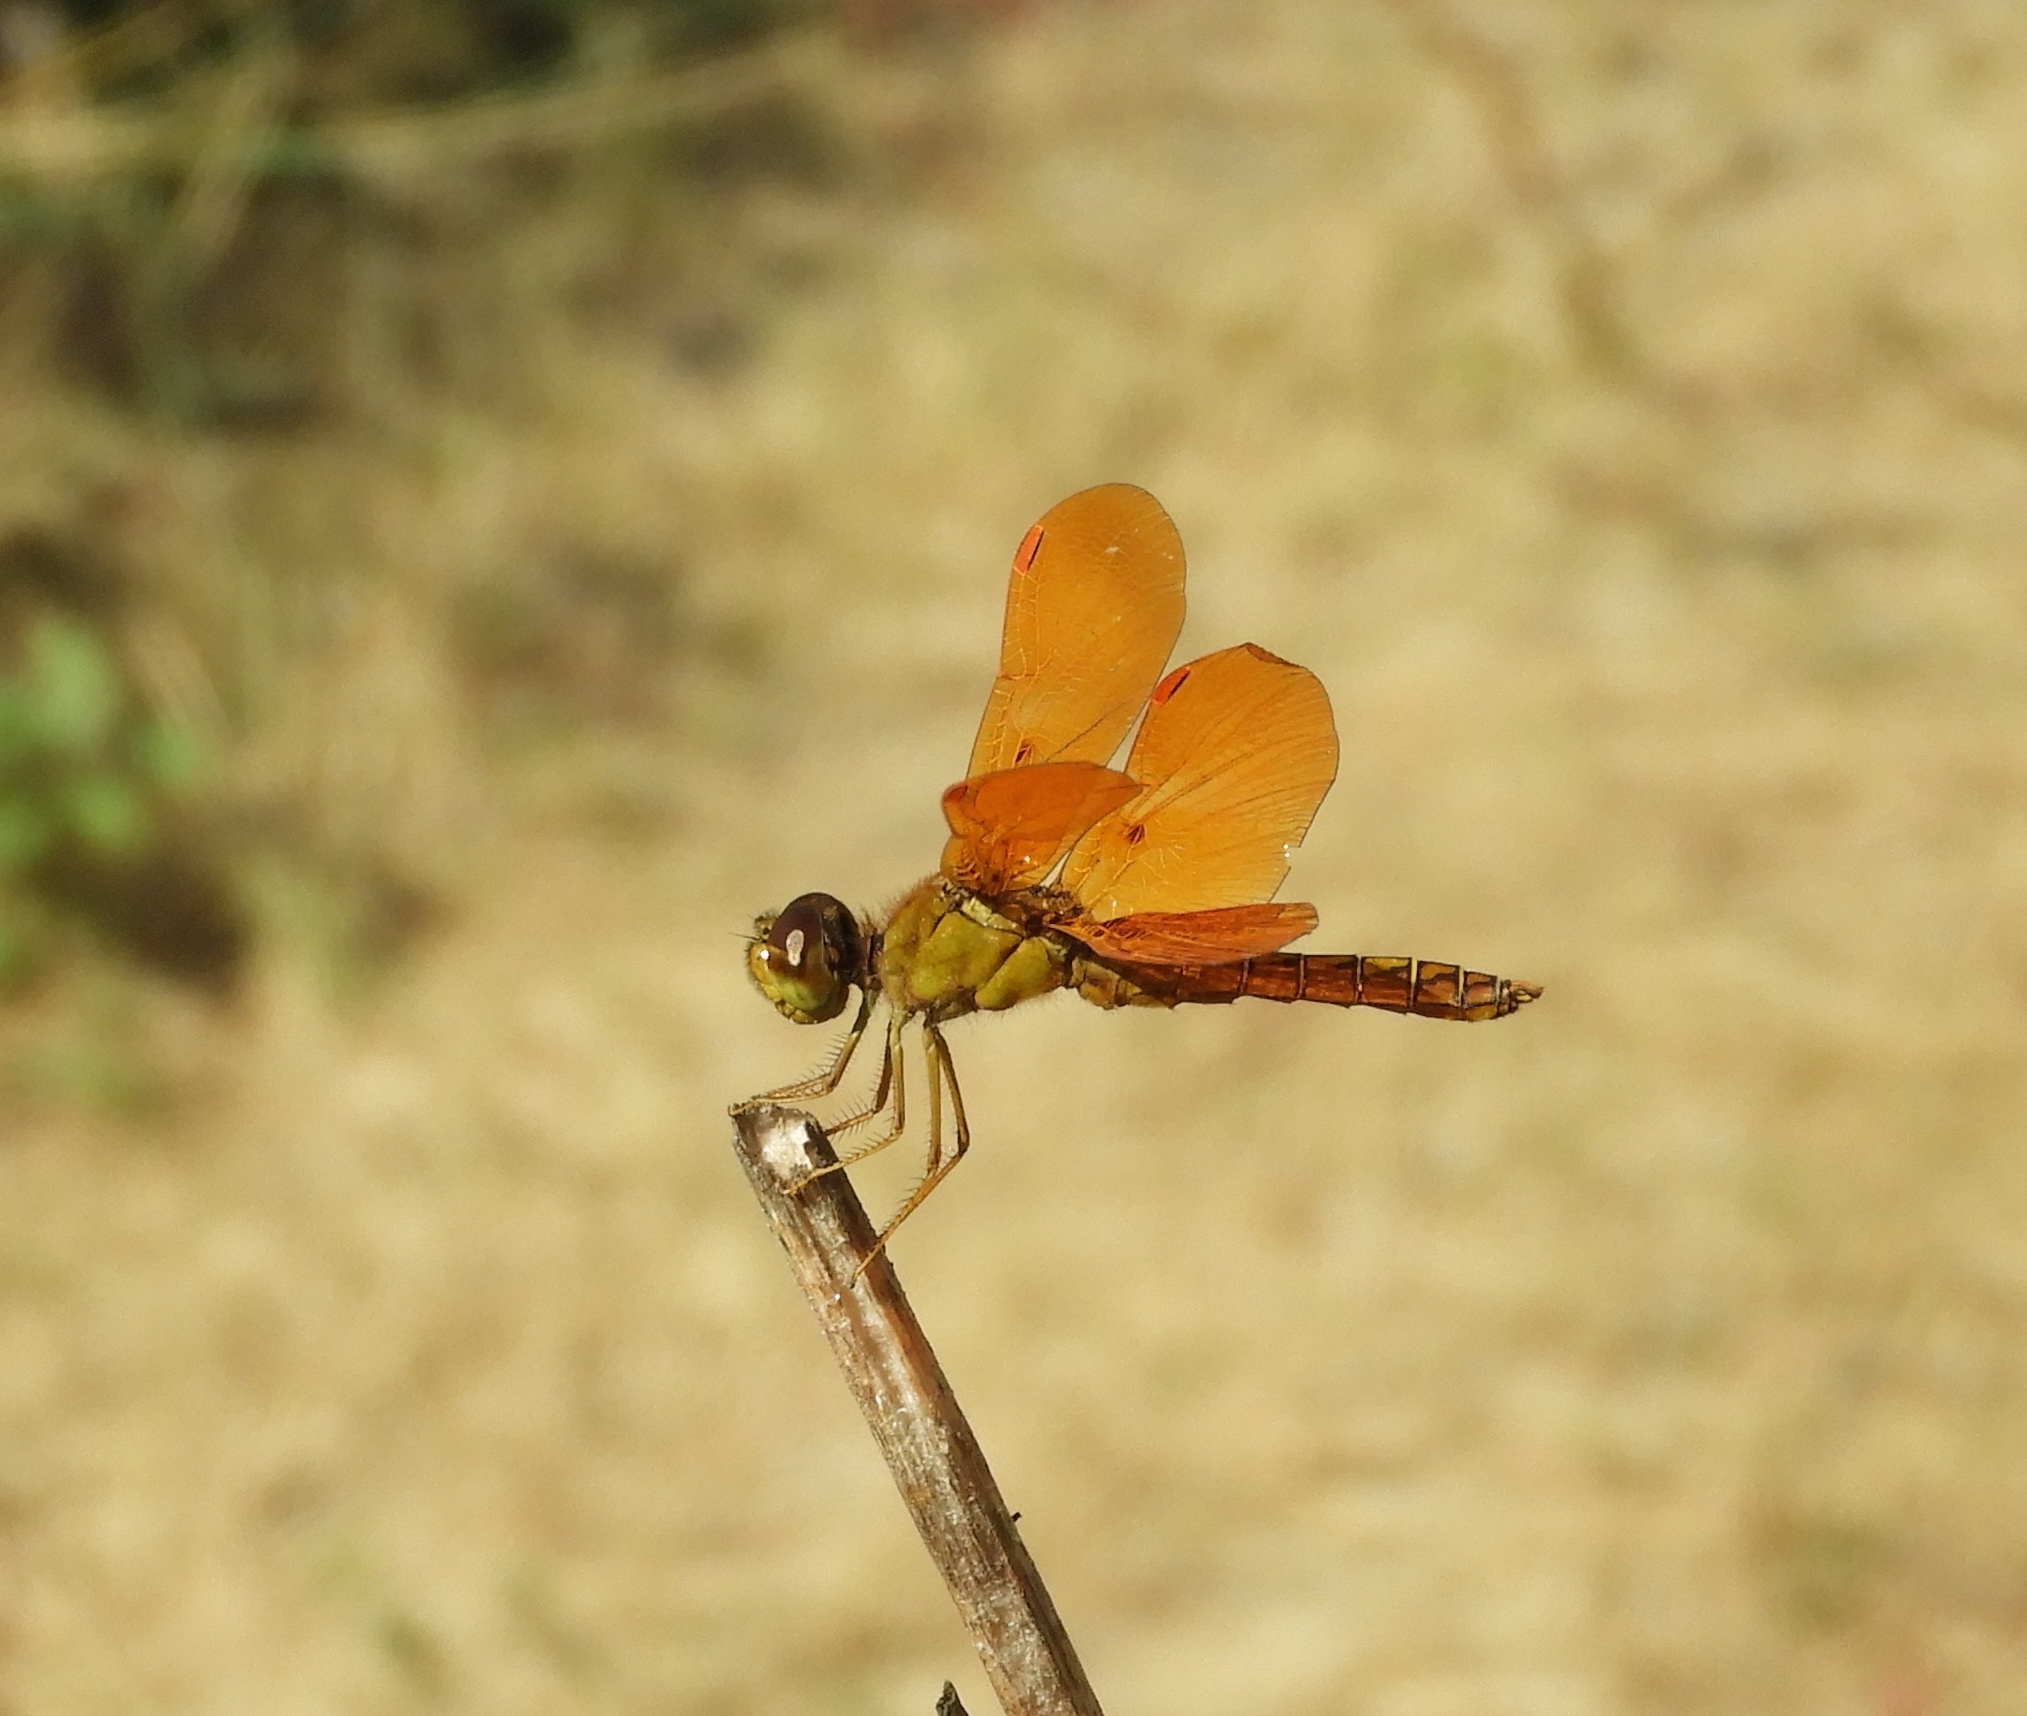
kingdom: Animalia
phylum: Arthropoda
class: Insecta
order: Odonata
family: Libellulidae
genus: Perithemis
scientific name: Perithemis intensa
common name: Mexican amberwing
